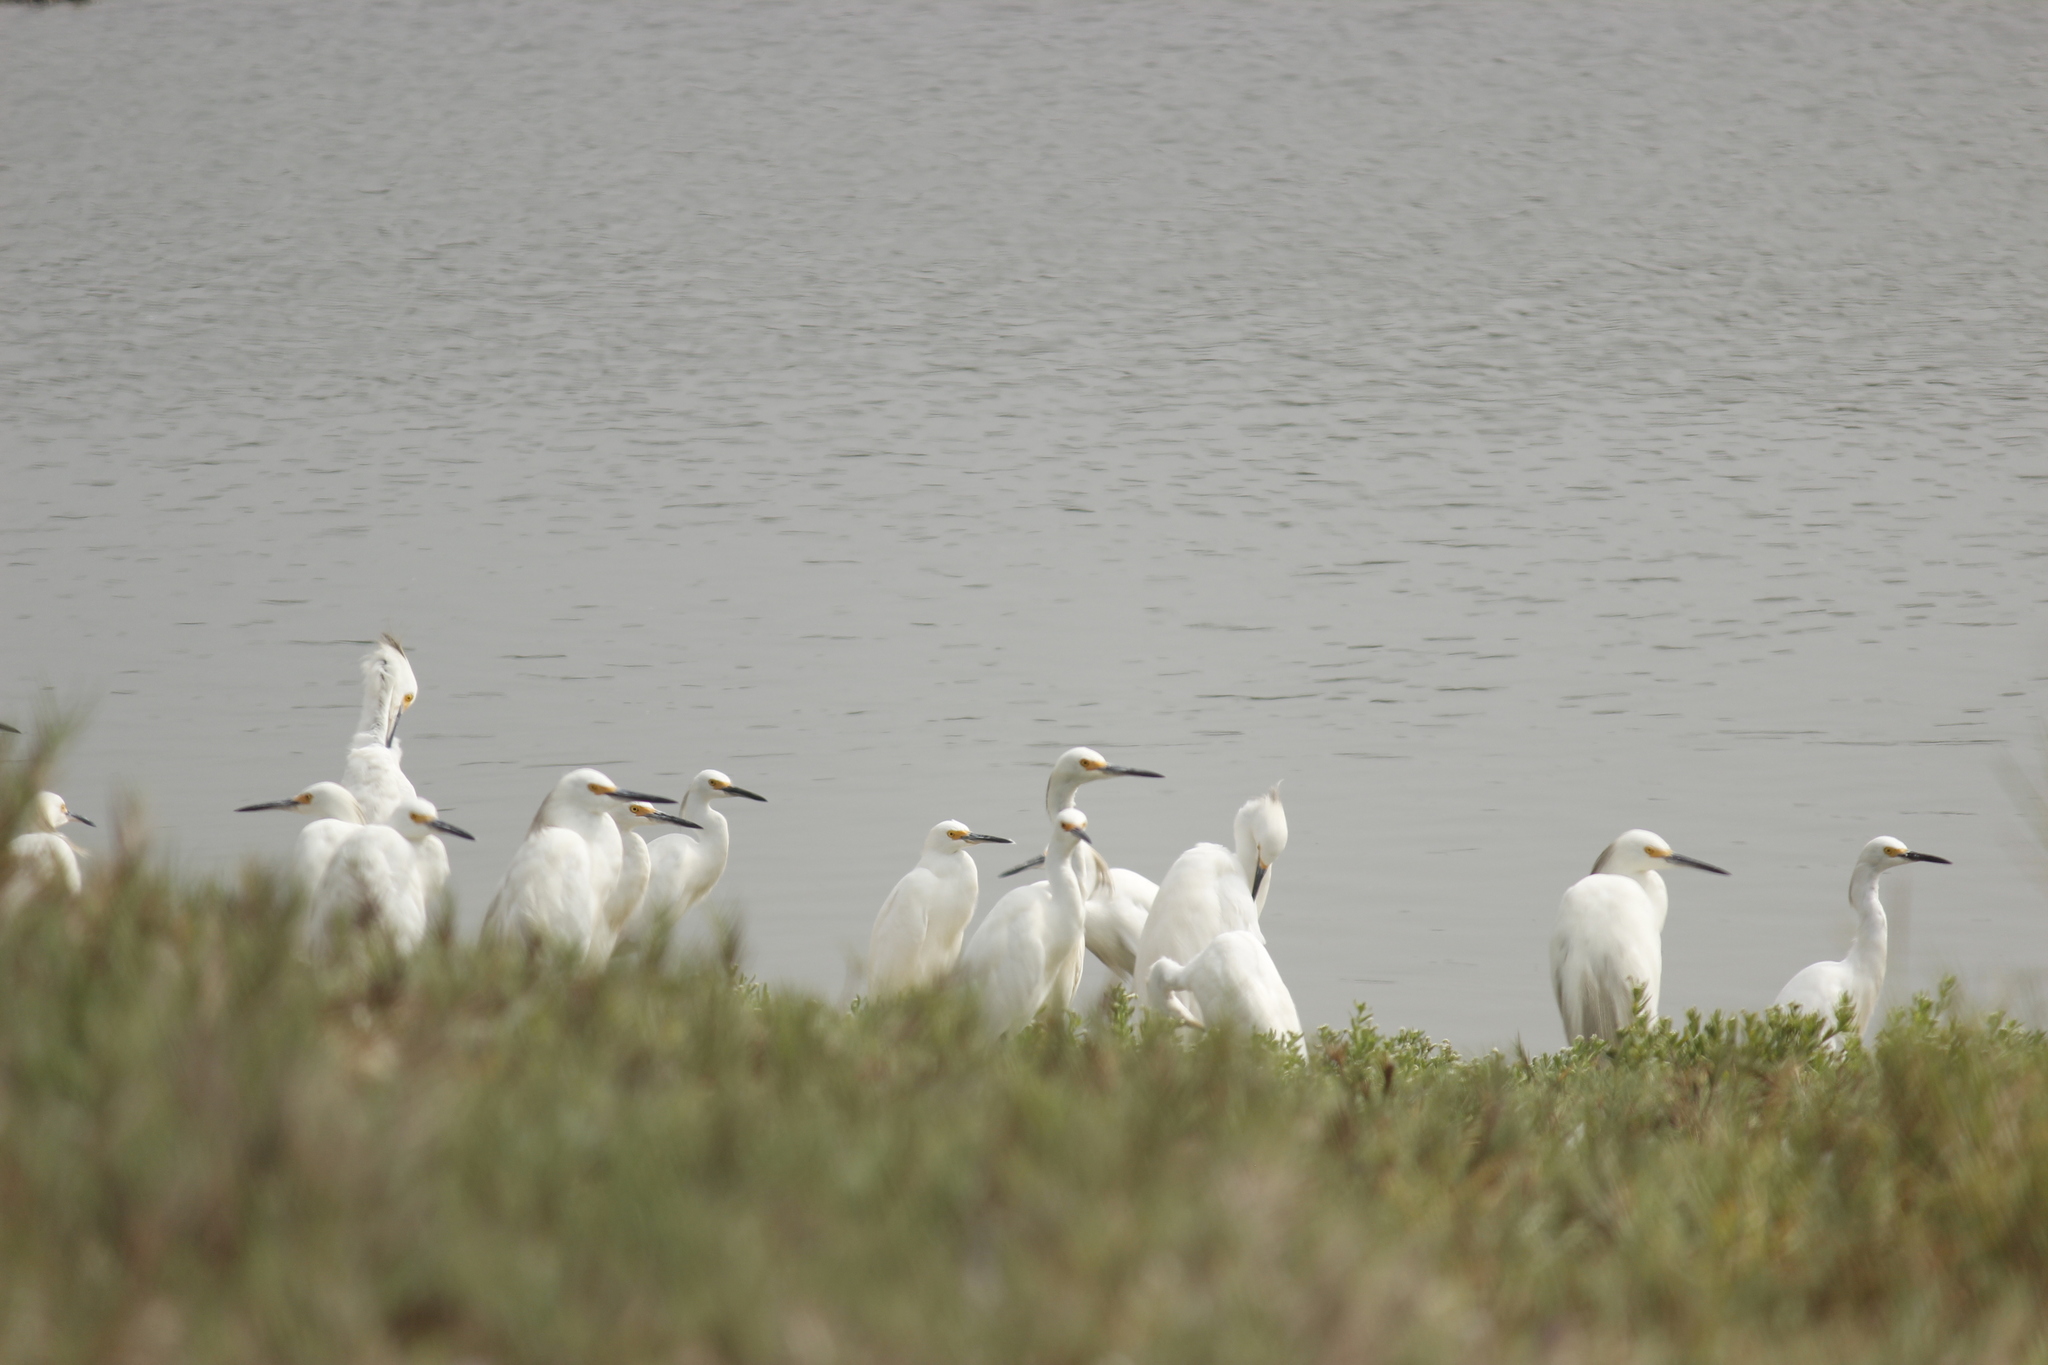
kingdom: Animalia
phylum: Chordata
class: Aves
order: Pelecaniformes
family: Ardeidae
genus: Egretta
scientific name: Egretta thula
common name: Snowy egret
